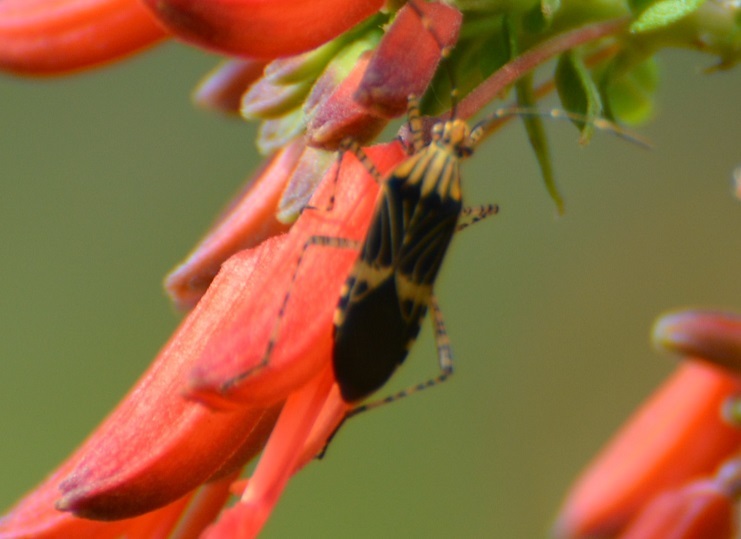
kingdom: Animalia
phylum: Arthropoda
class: Insecta
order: Hemiptera
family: Coreidae
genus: Hypselonotus
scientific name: Hypselonotus lineatus
